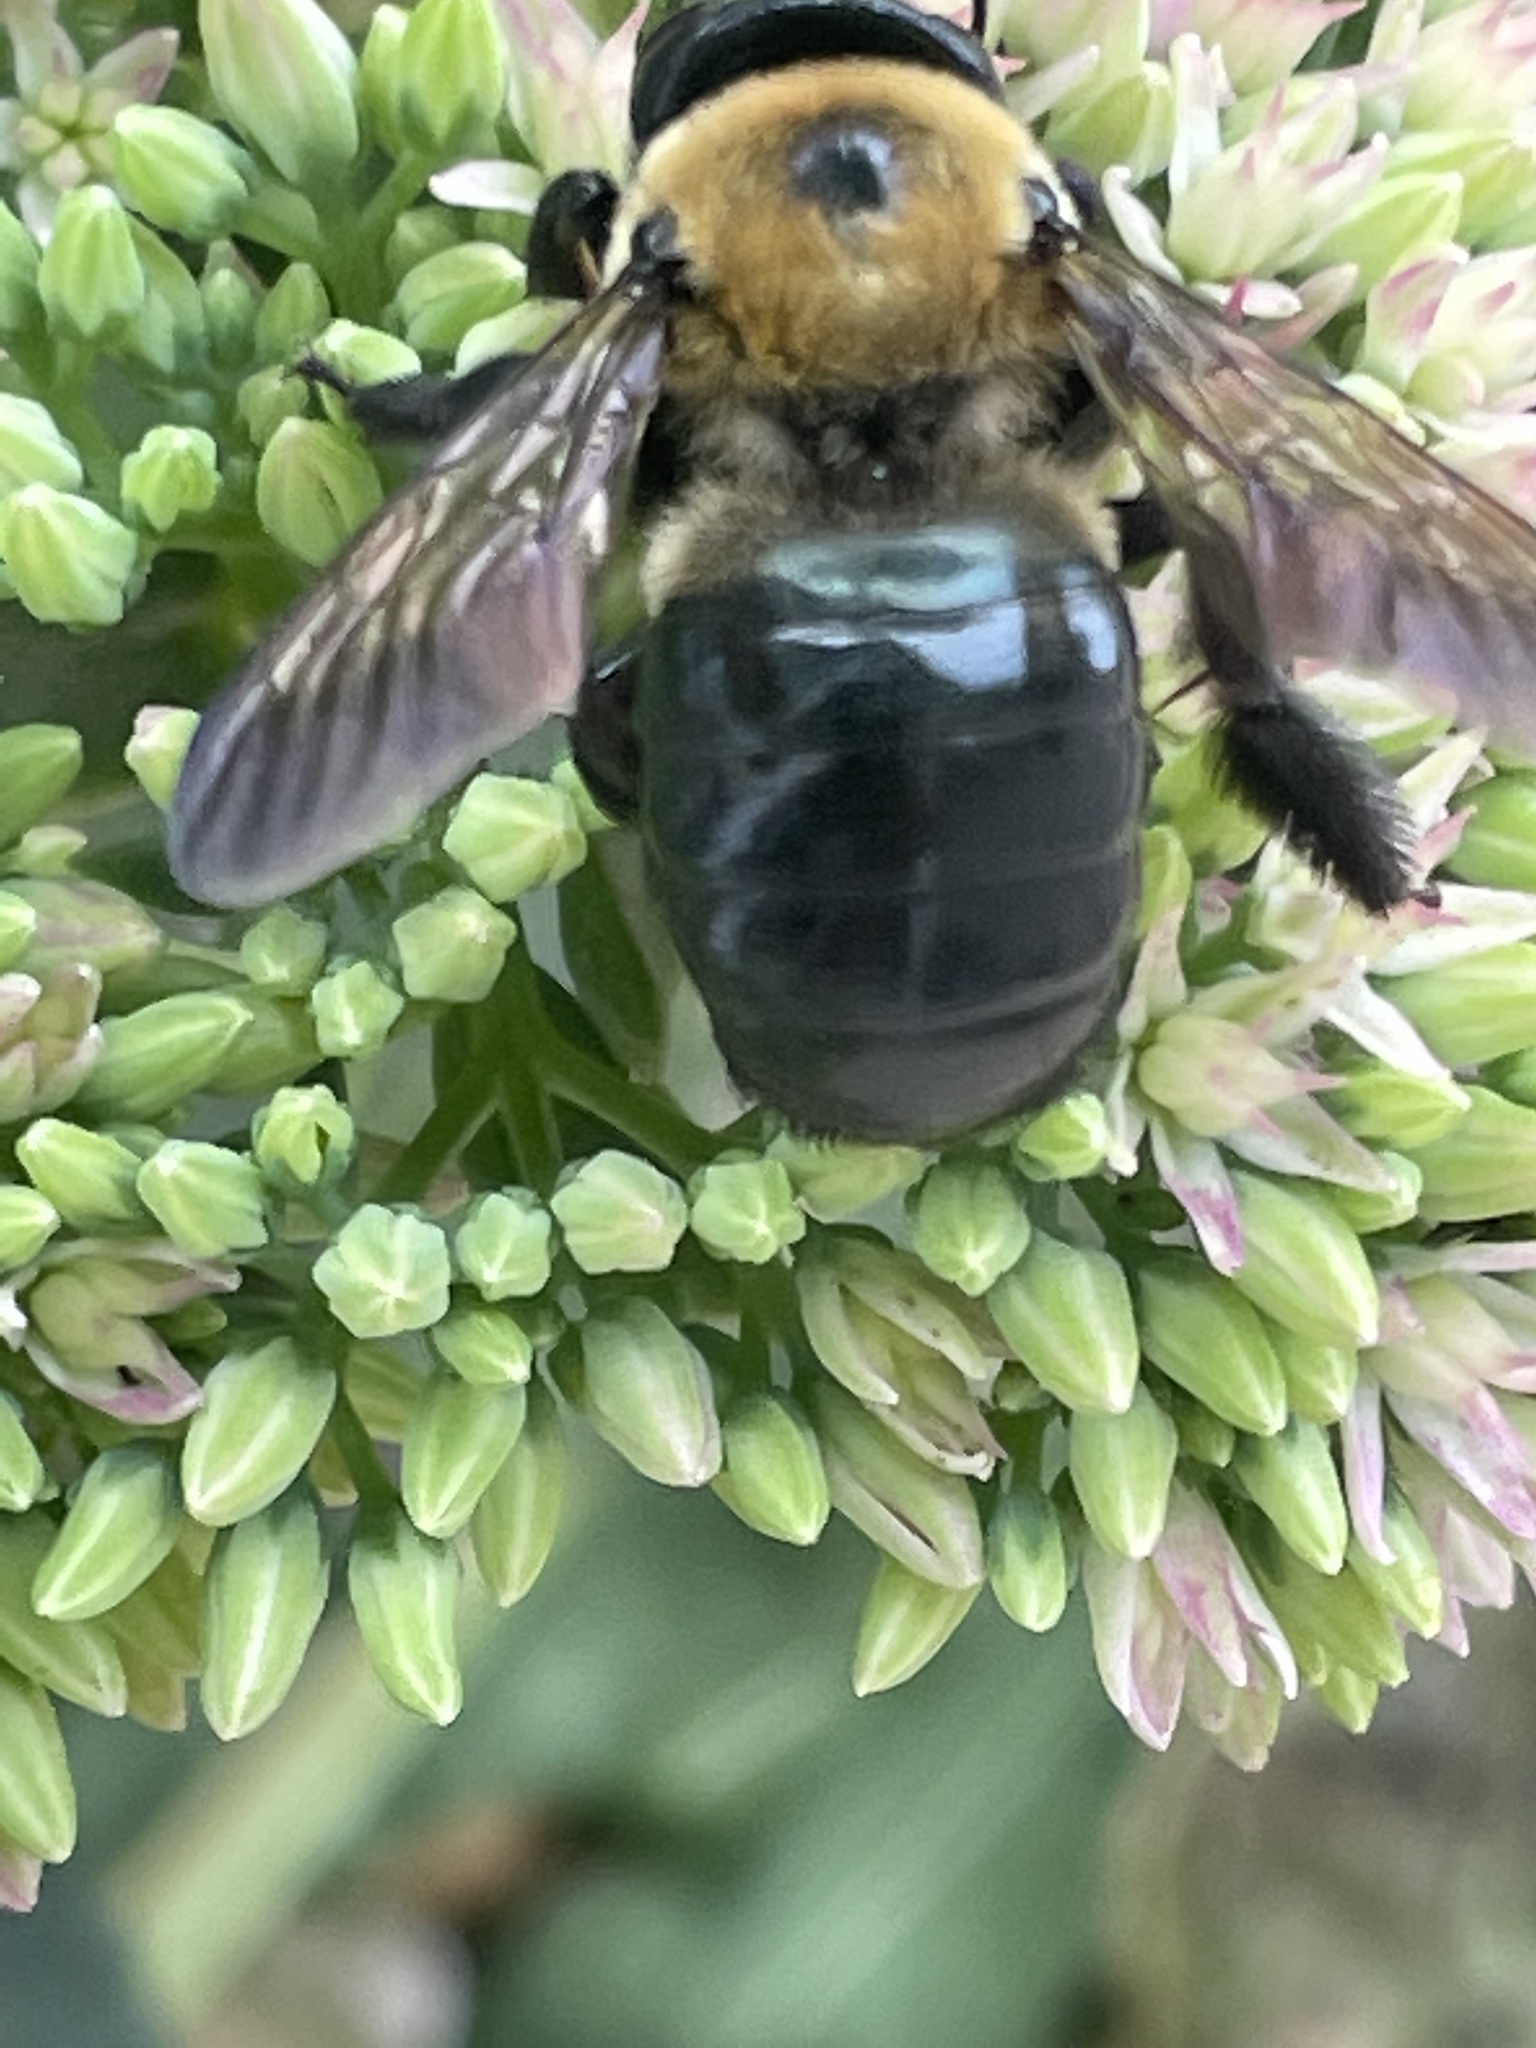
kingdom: Animalia
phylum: Arthropoda
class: Insecta
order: Hymenoptera
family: Apidae
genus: Xylocopa
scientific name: Xylocopa virginica
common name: Carpenter bee
